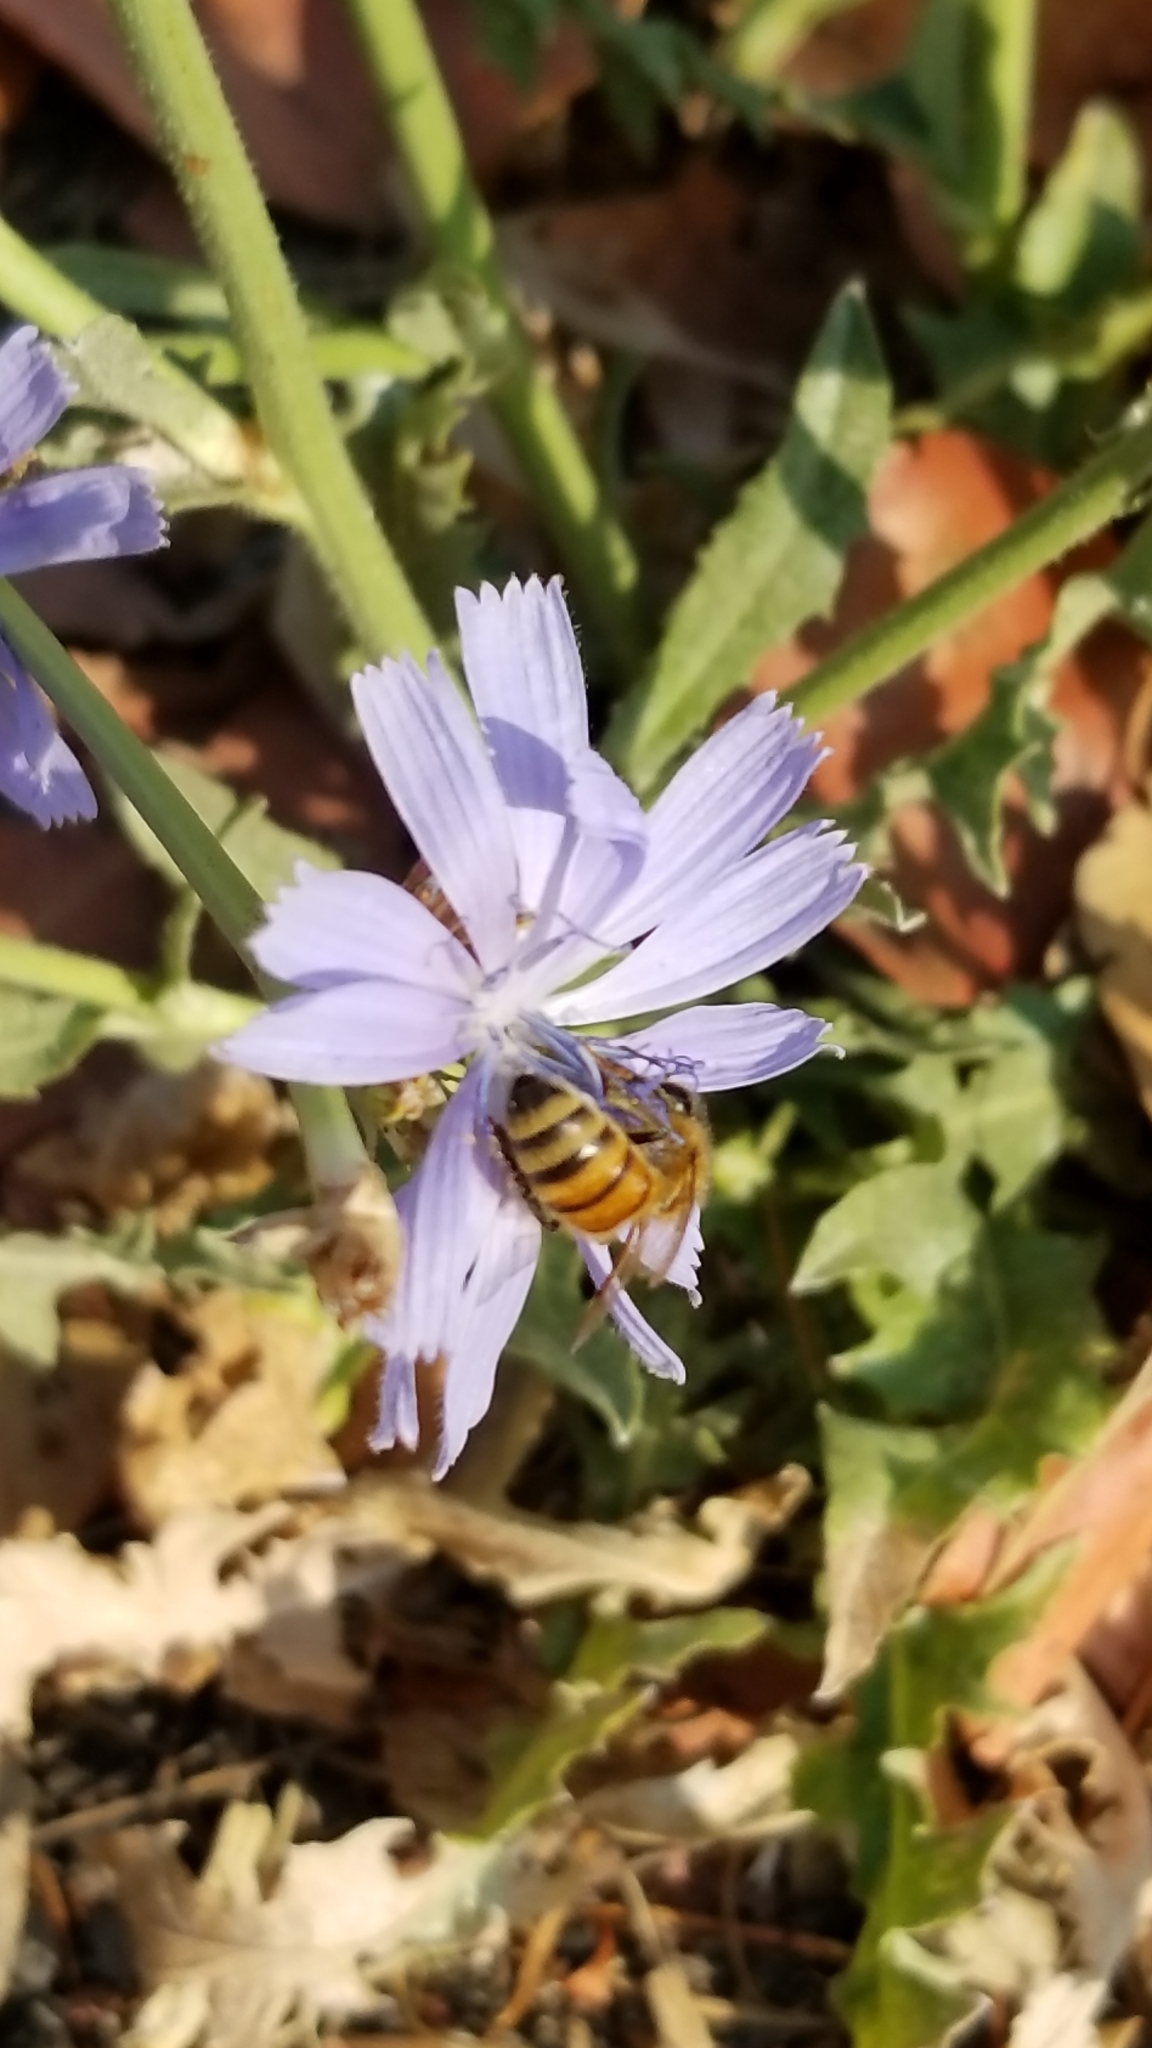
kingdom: Animalia
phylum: Arthropoda
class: Insecta
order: Hymenoptera
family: Apidae
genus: Apis
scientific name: Apis mellifera
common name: Honey bee
